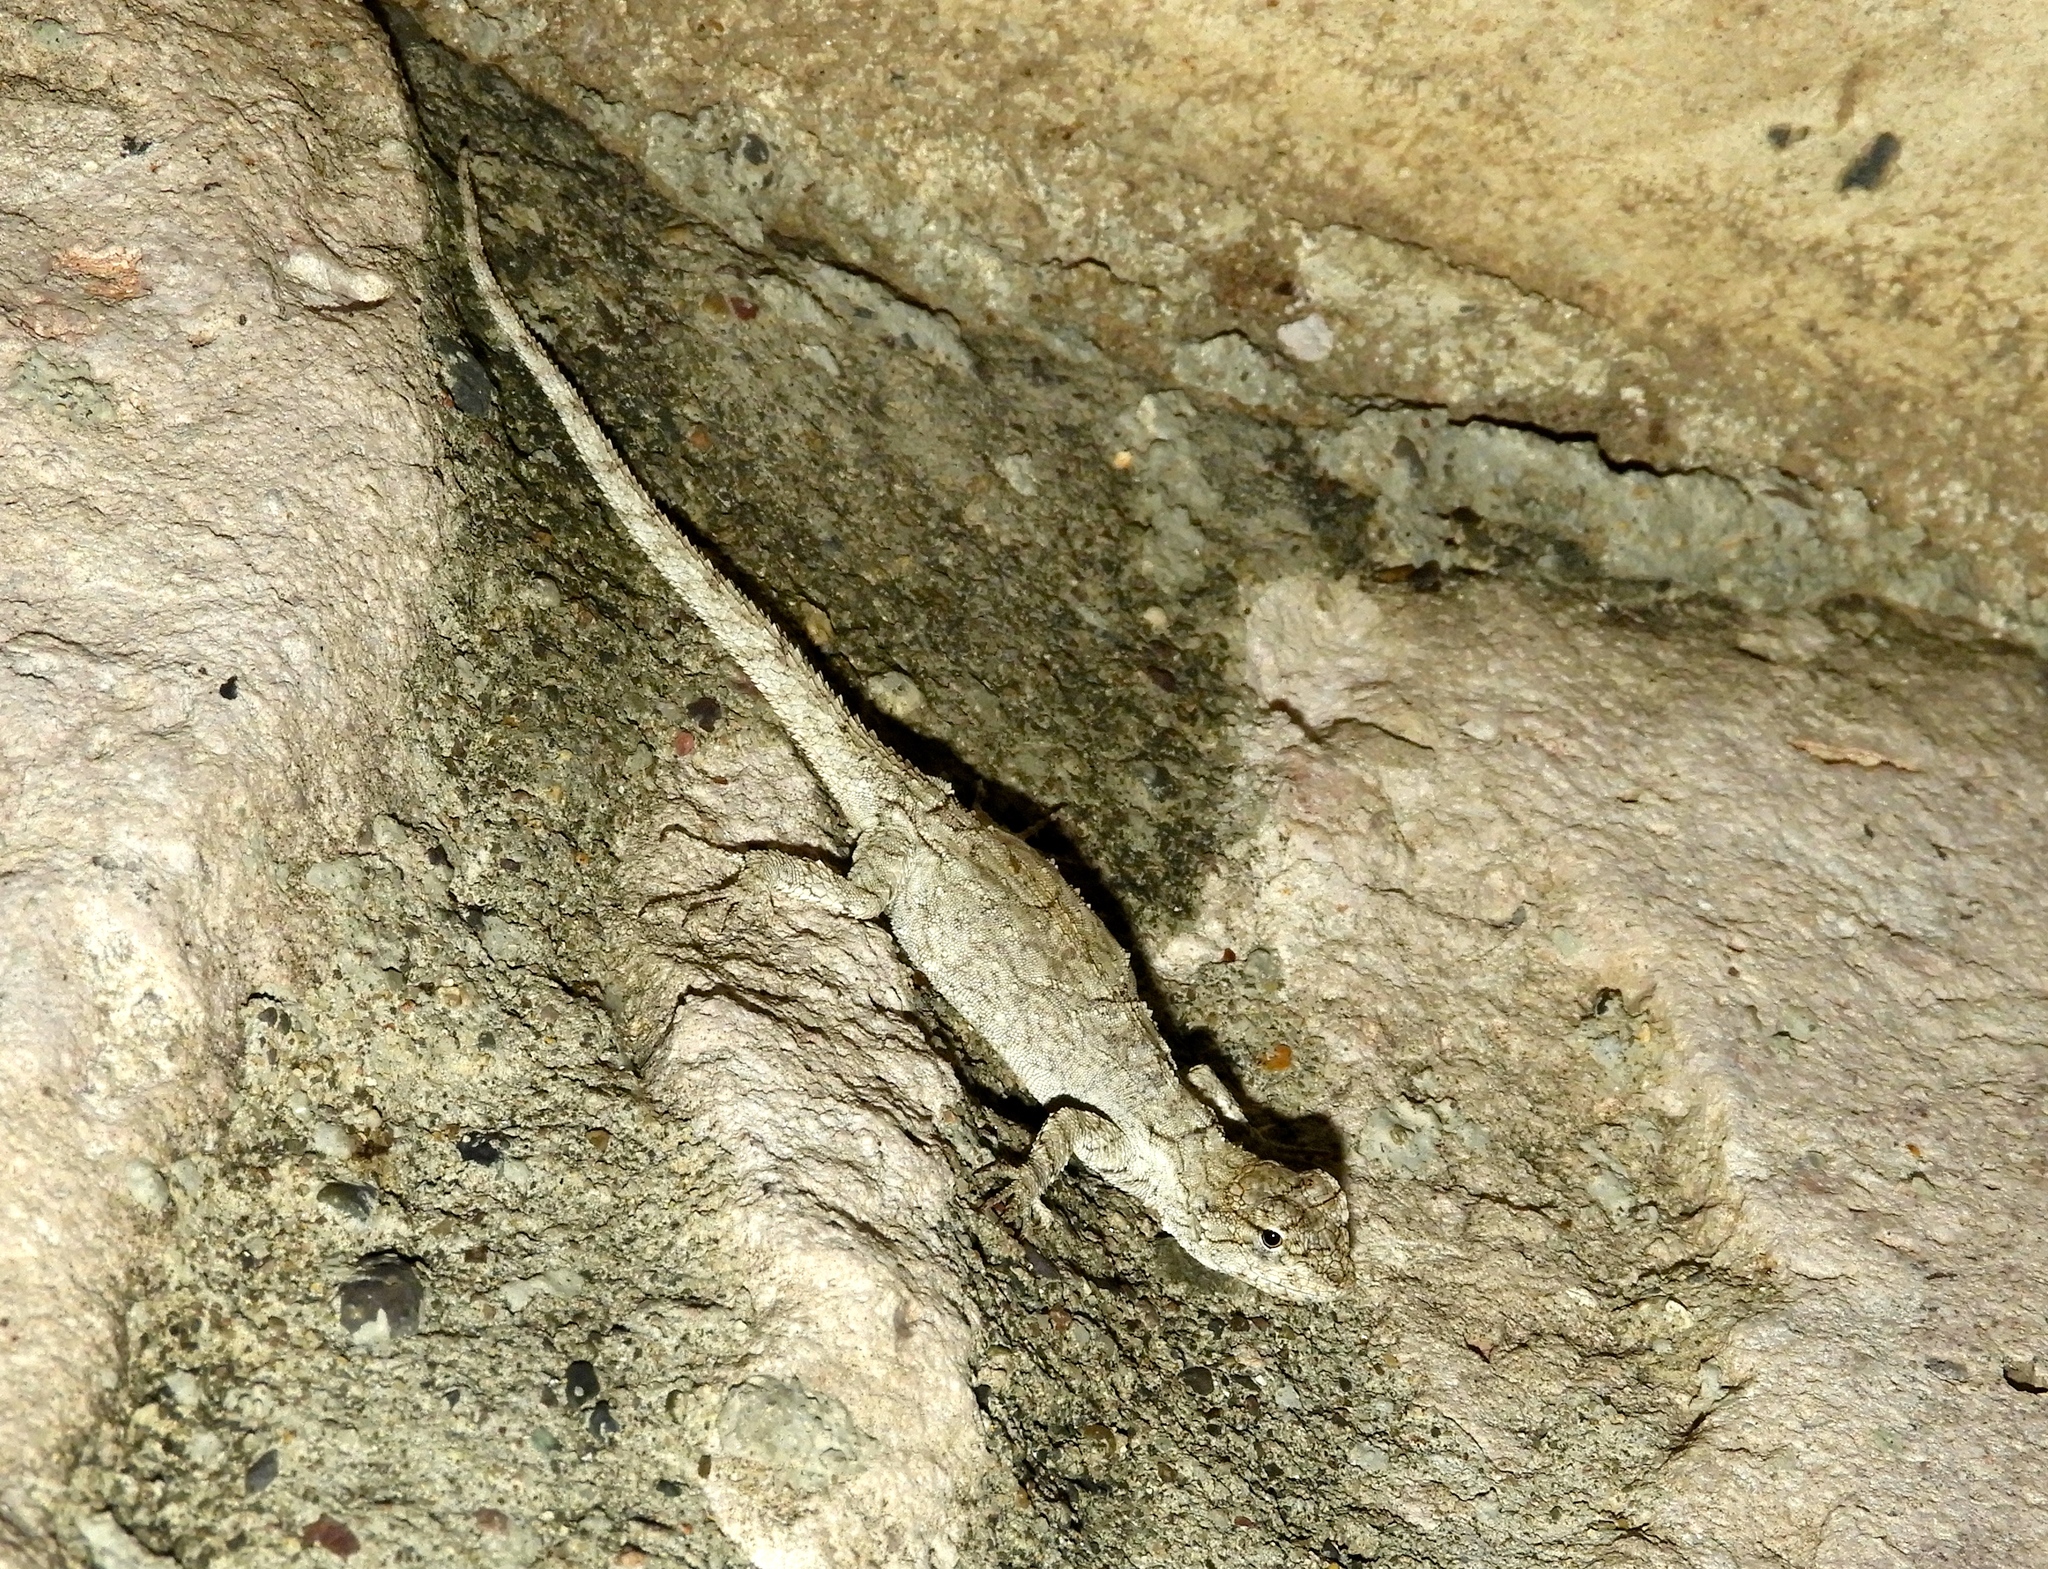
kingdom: Animalia
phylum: Chordata
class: Squamata
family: Phrynosomatidae
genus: Urosaurus
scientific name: Urosaurus bicarinatus
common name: Tropical tree lizard
